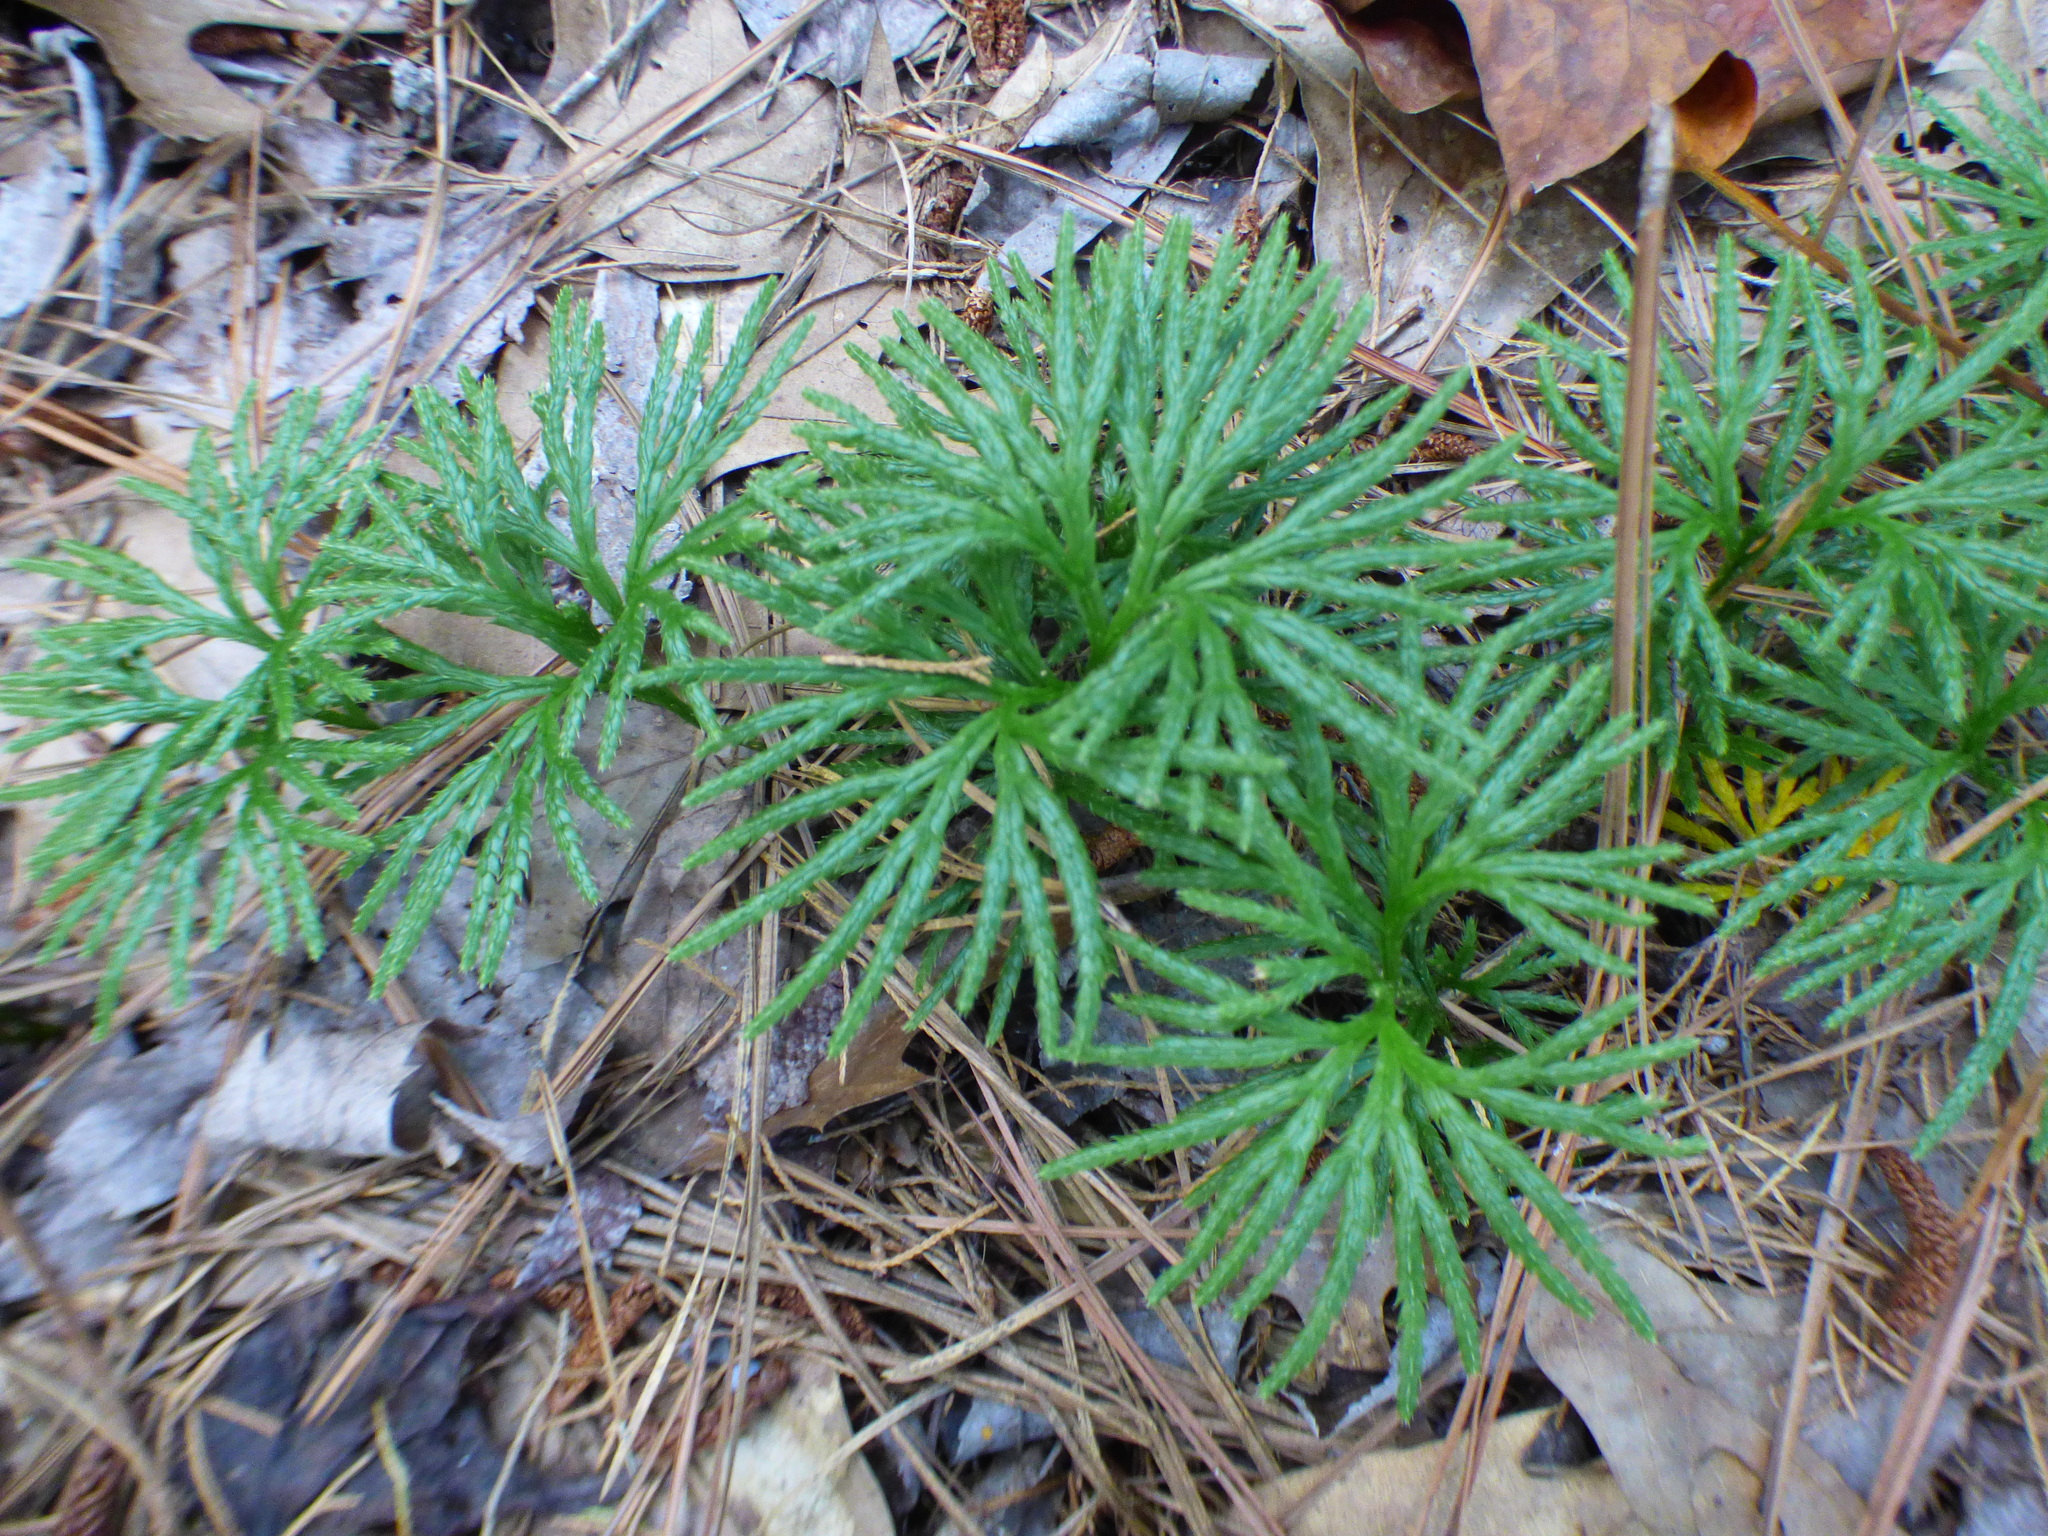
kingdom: Plantae
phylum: Tracheophyta
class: Lycopodiopsida
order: Lycopodiales
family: Lycopodiaceae
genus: Diphasiastrum
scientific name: Diphasiastrum digitatum
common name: Southern running-pine
